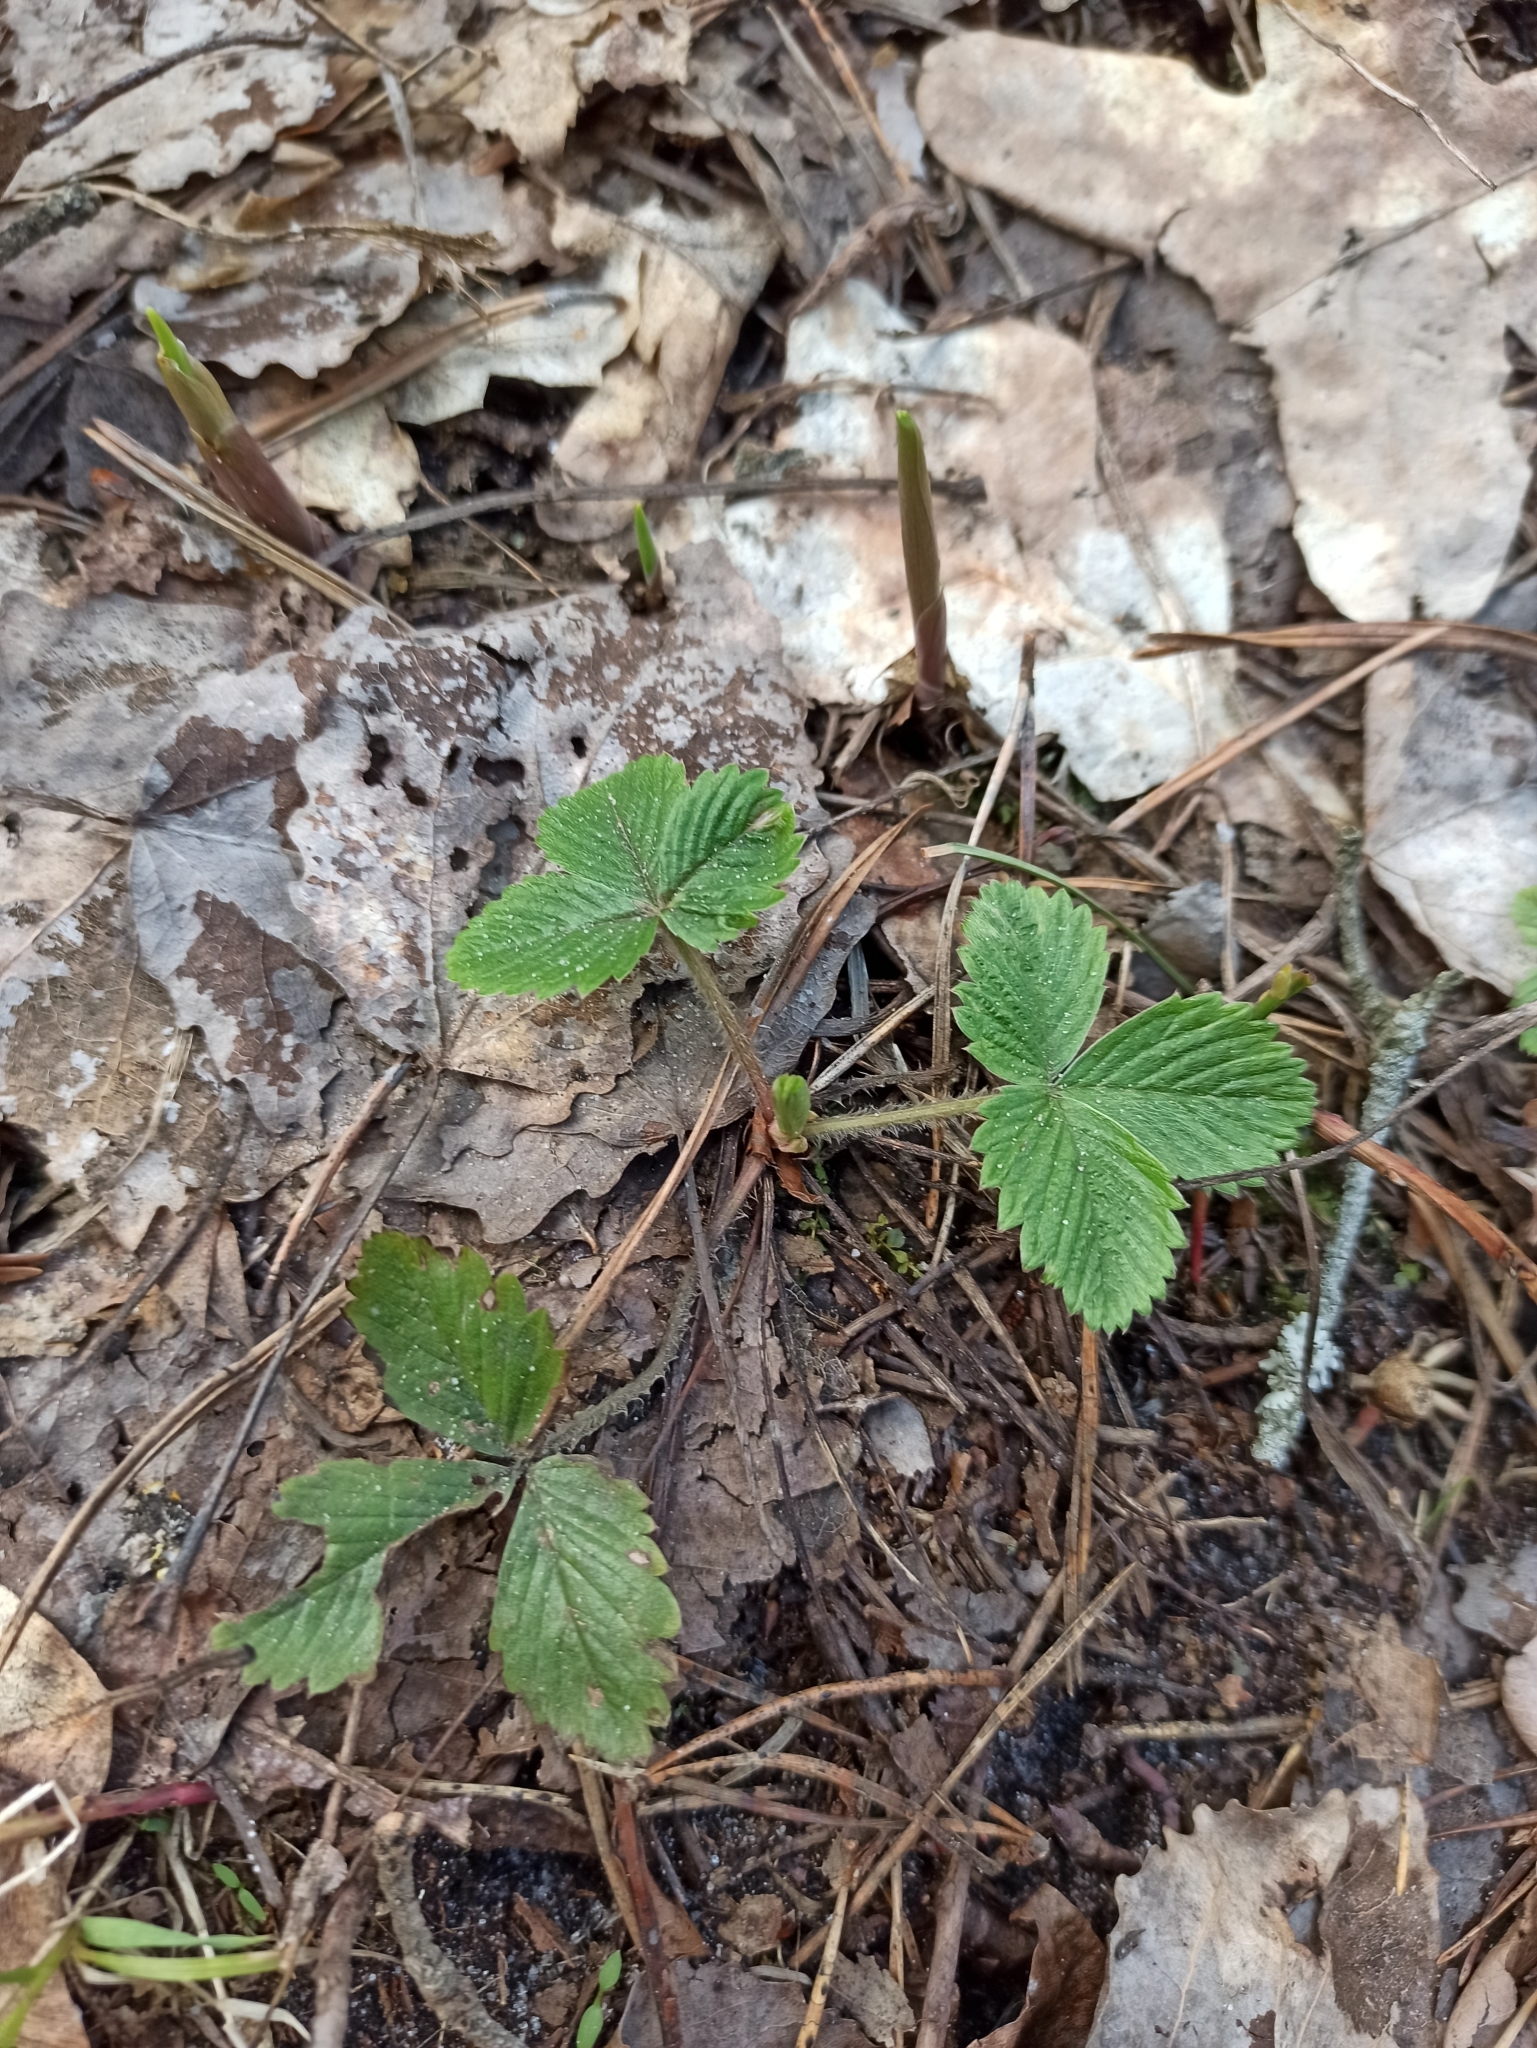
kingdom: Plantae
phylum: Tracheophyta
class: Magnoliopsida
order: Rosales
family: Rosaceae
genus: Fragaria
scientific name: Fragaria vesca
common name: Wild strawberry
